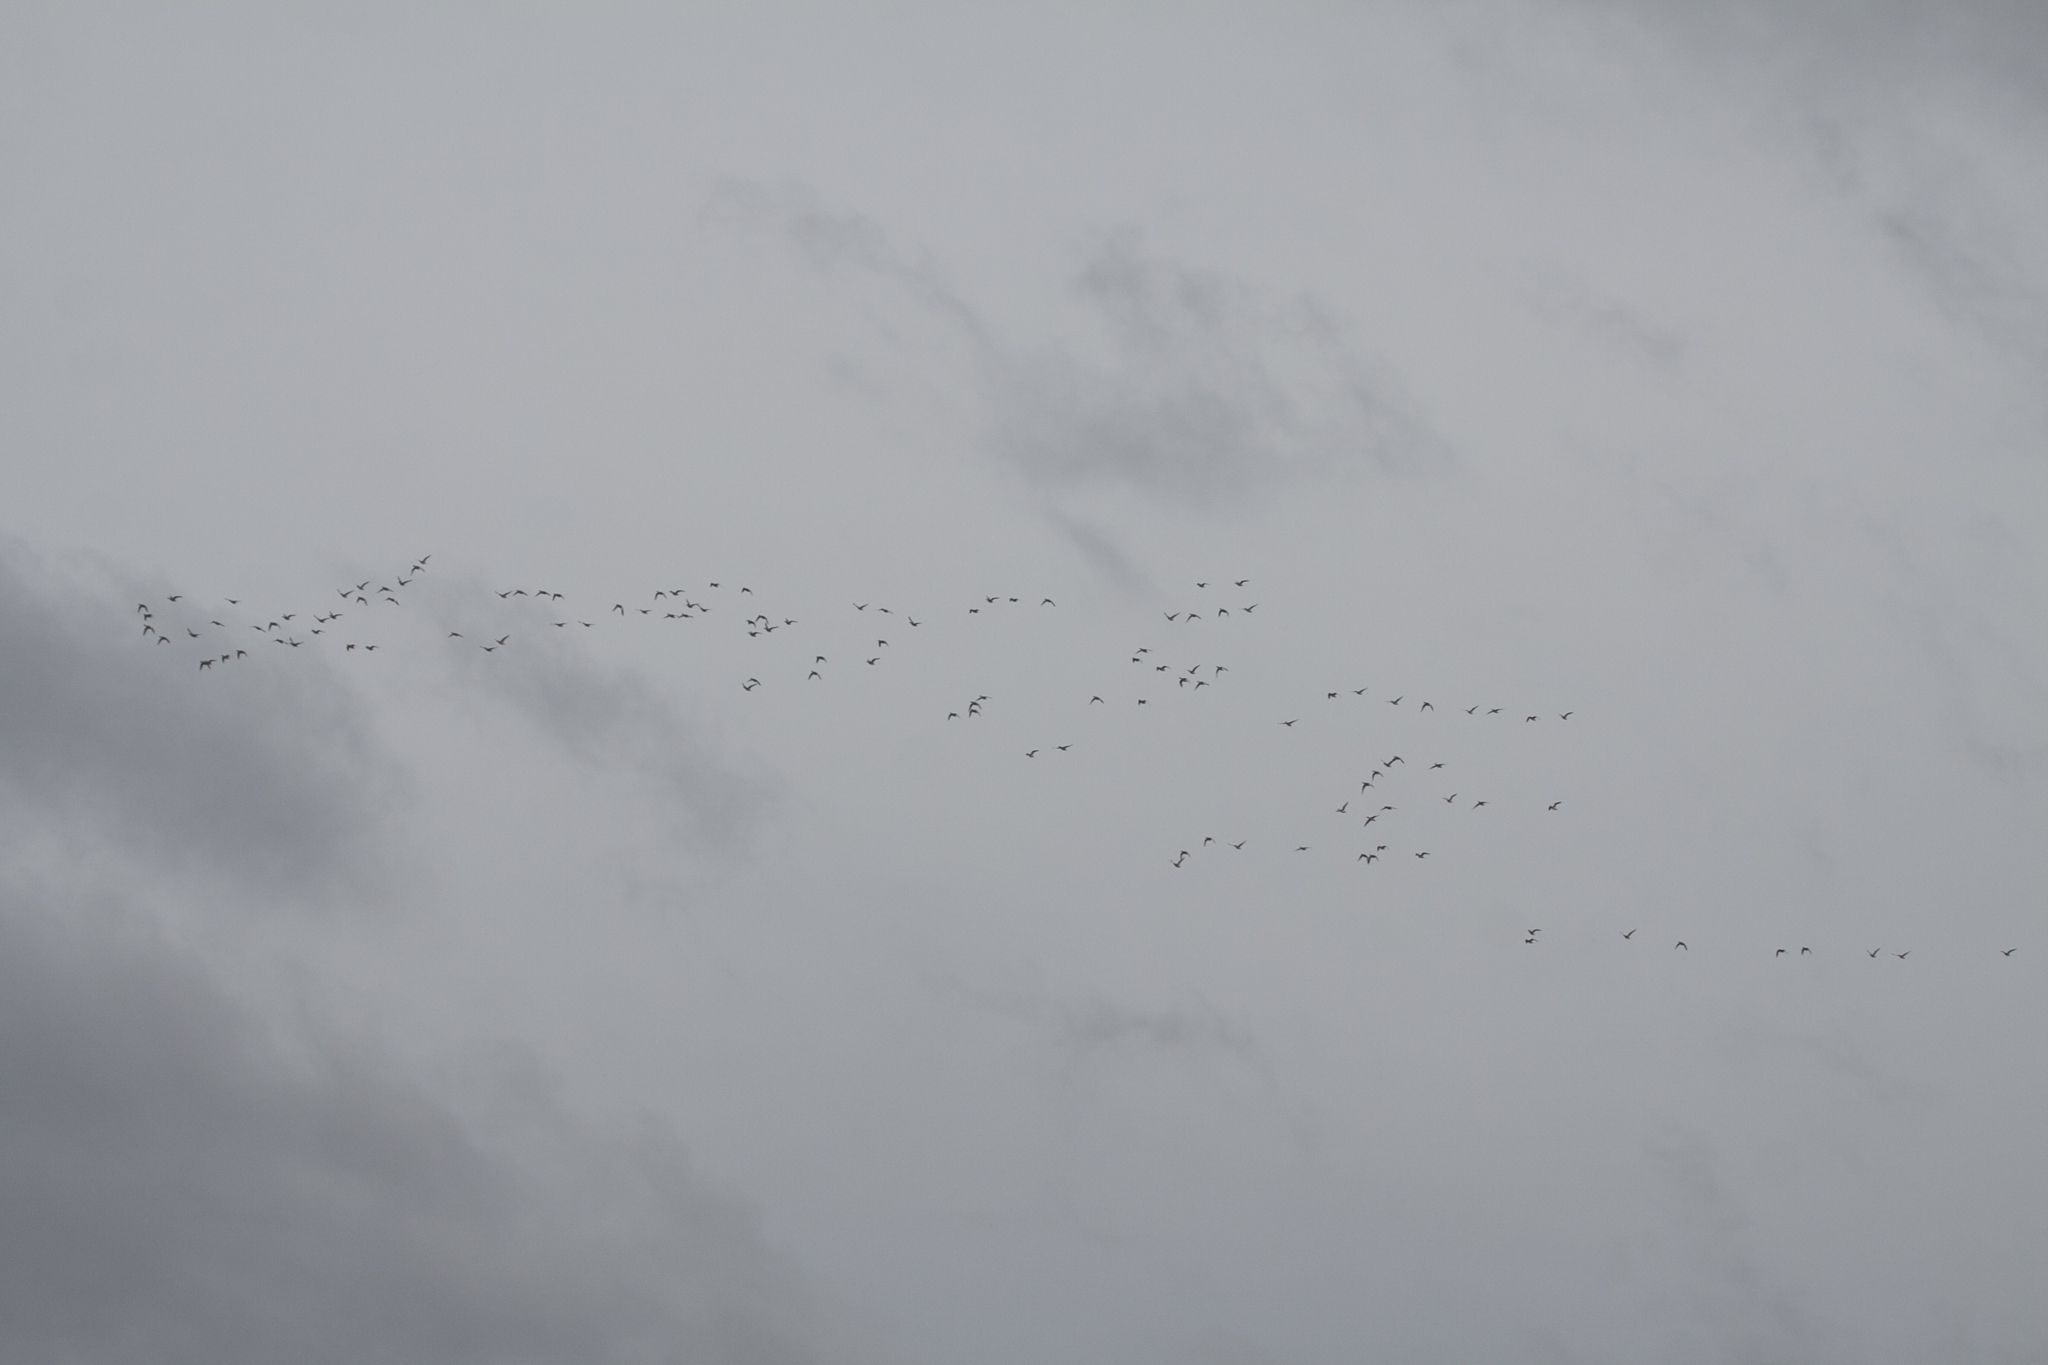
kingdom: Animalia
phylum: Chordata
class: Aves
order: Anseriformes
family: Anatidae
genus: Mareca
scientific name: Mareca penelope
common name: Eurasian wigeon
